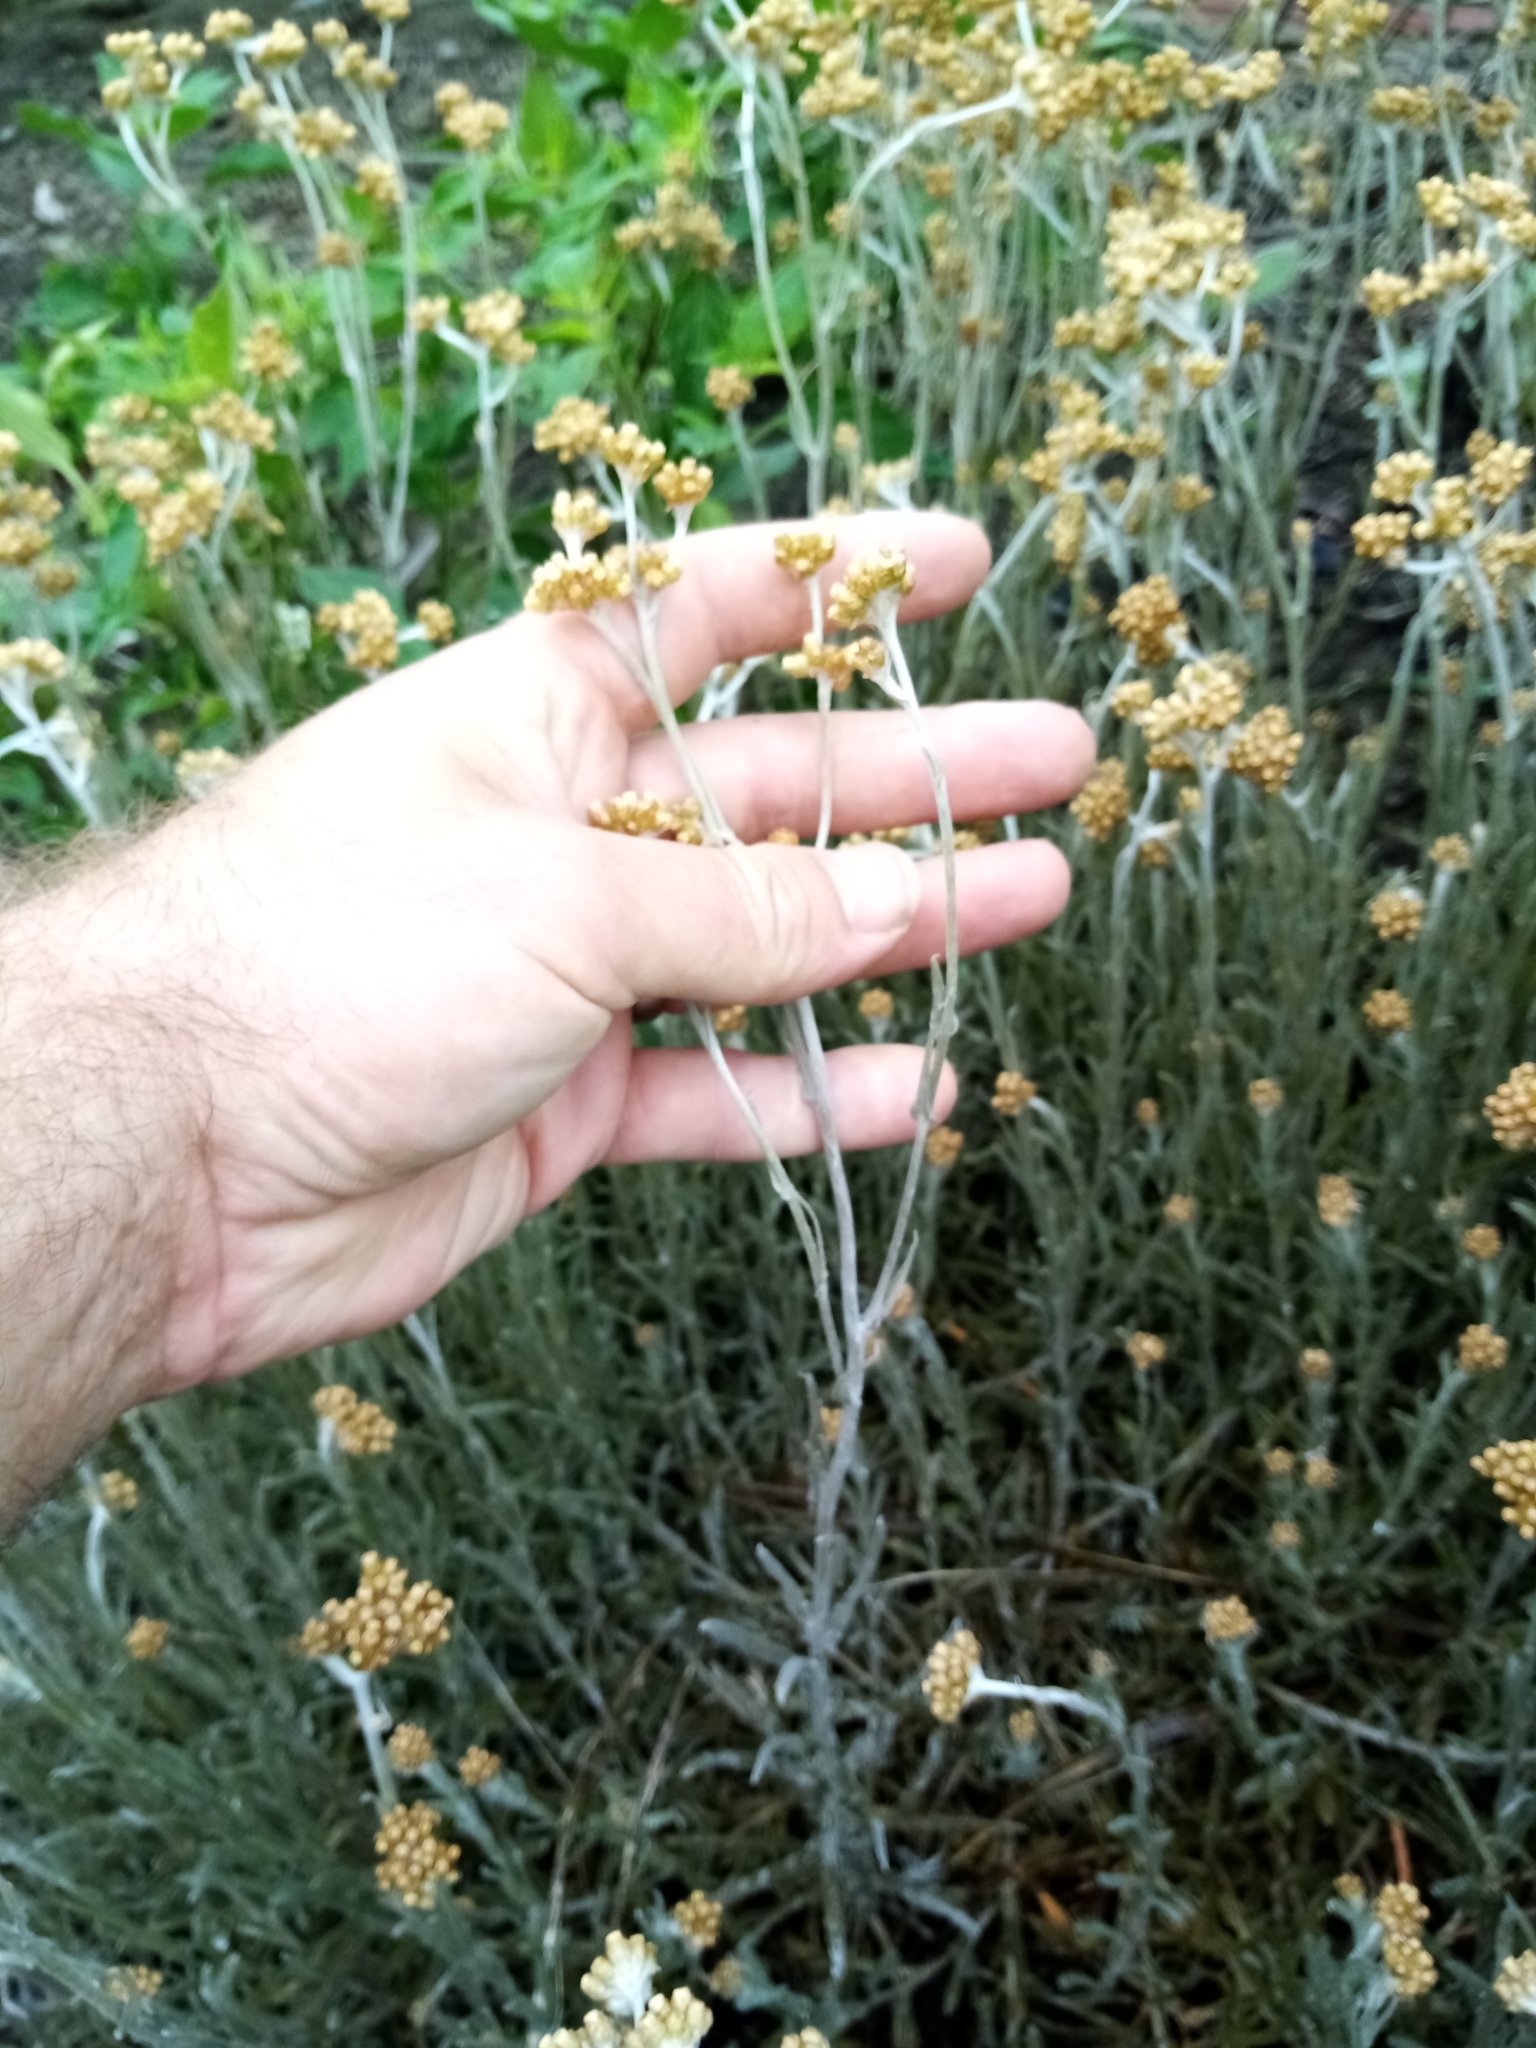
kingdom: Plantae
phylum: Tracheophyta
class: Magnoliopsida
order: Asterales
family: Asteraceae
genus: Helichrysum
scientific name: Helichrysum luteoalbum
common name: Daisy
